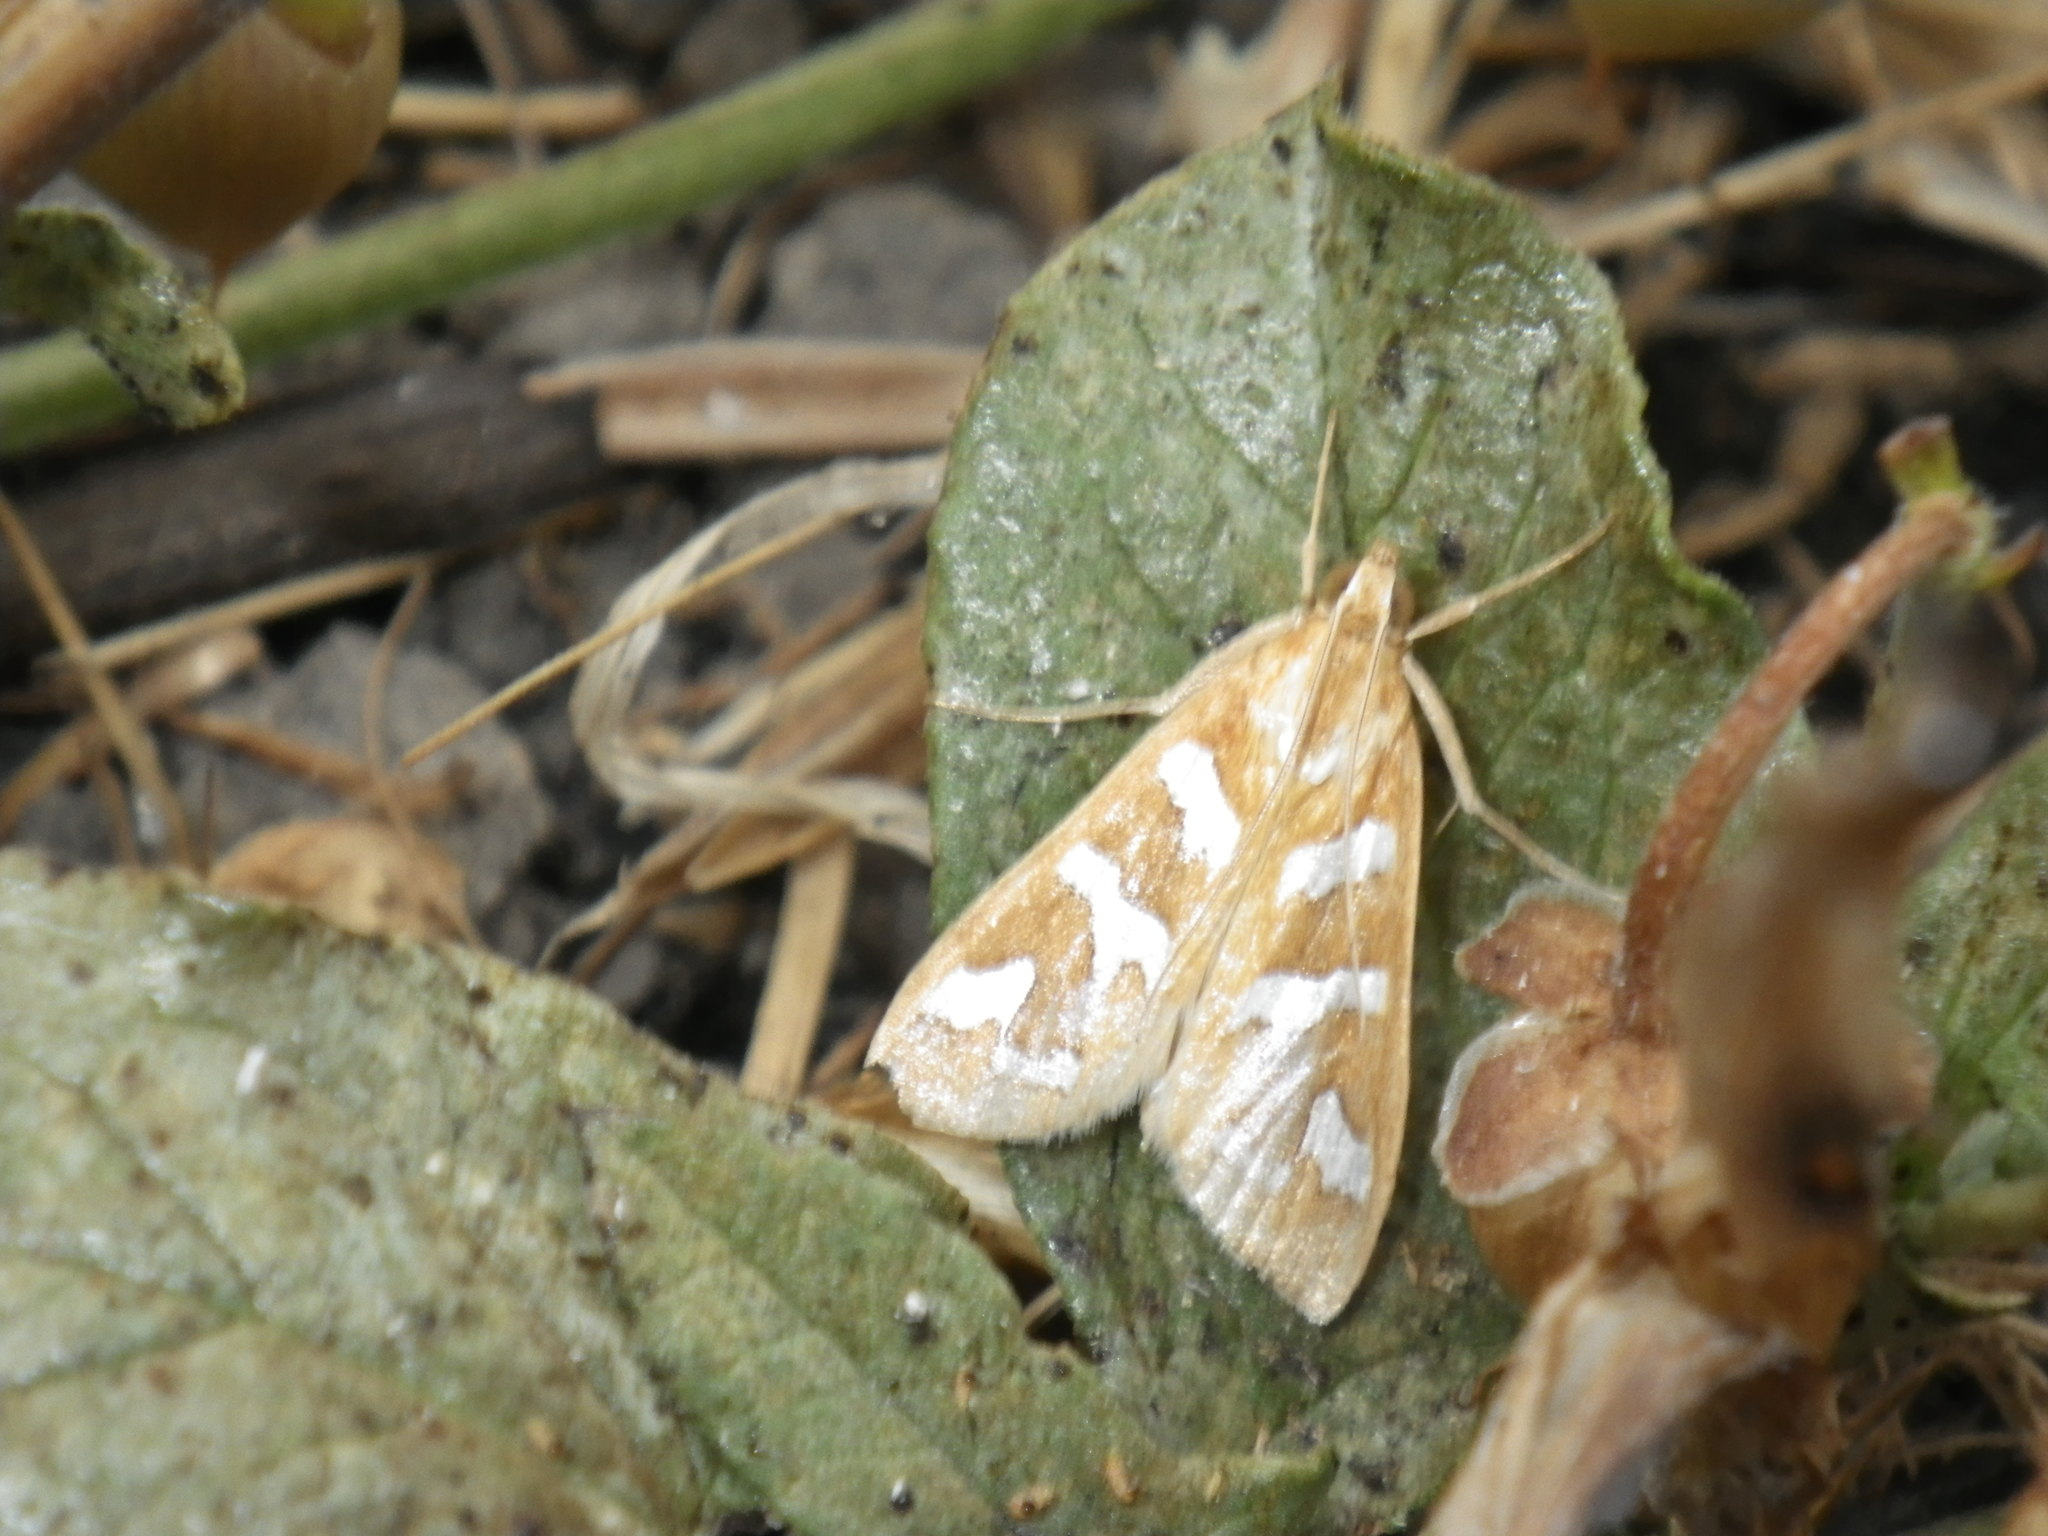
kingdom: Animalia
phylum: Arthropoda
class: Insecta
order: Lepidoptera
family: Crambidae
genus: Diastictis
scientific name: Diastictis fracturalis
